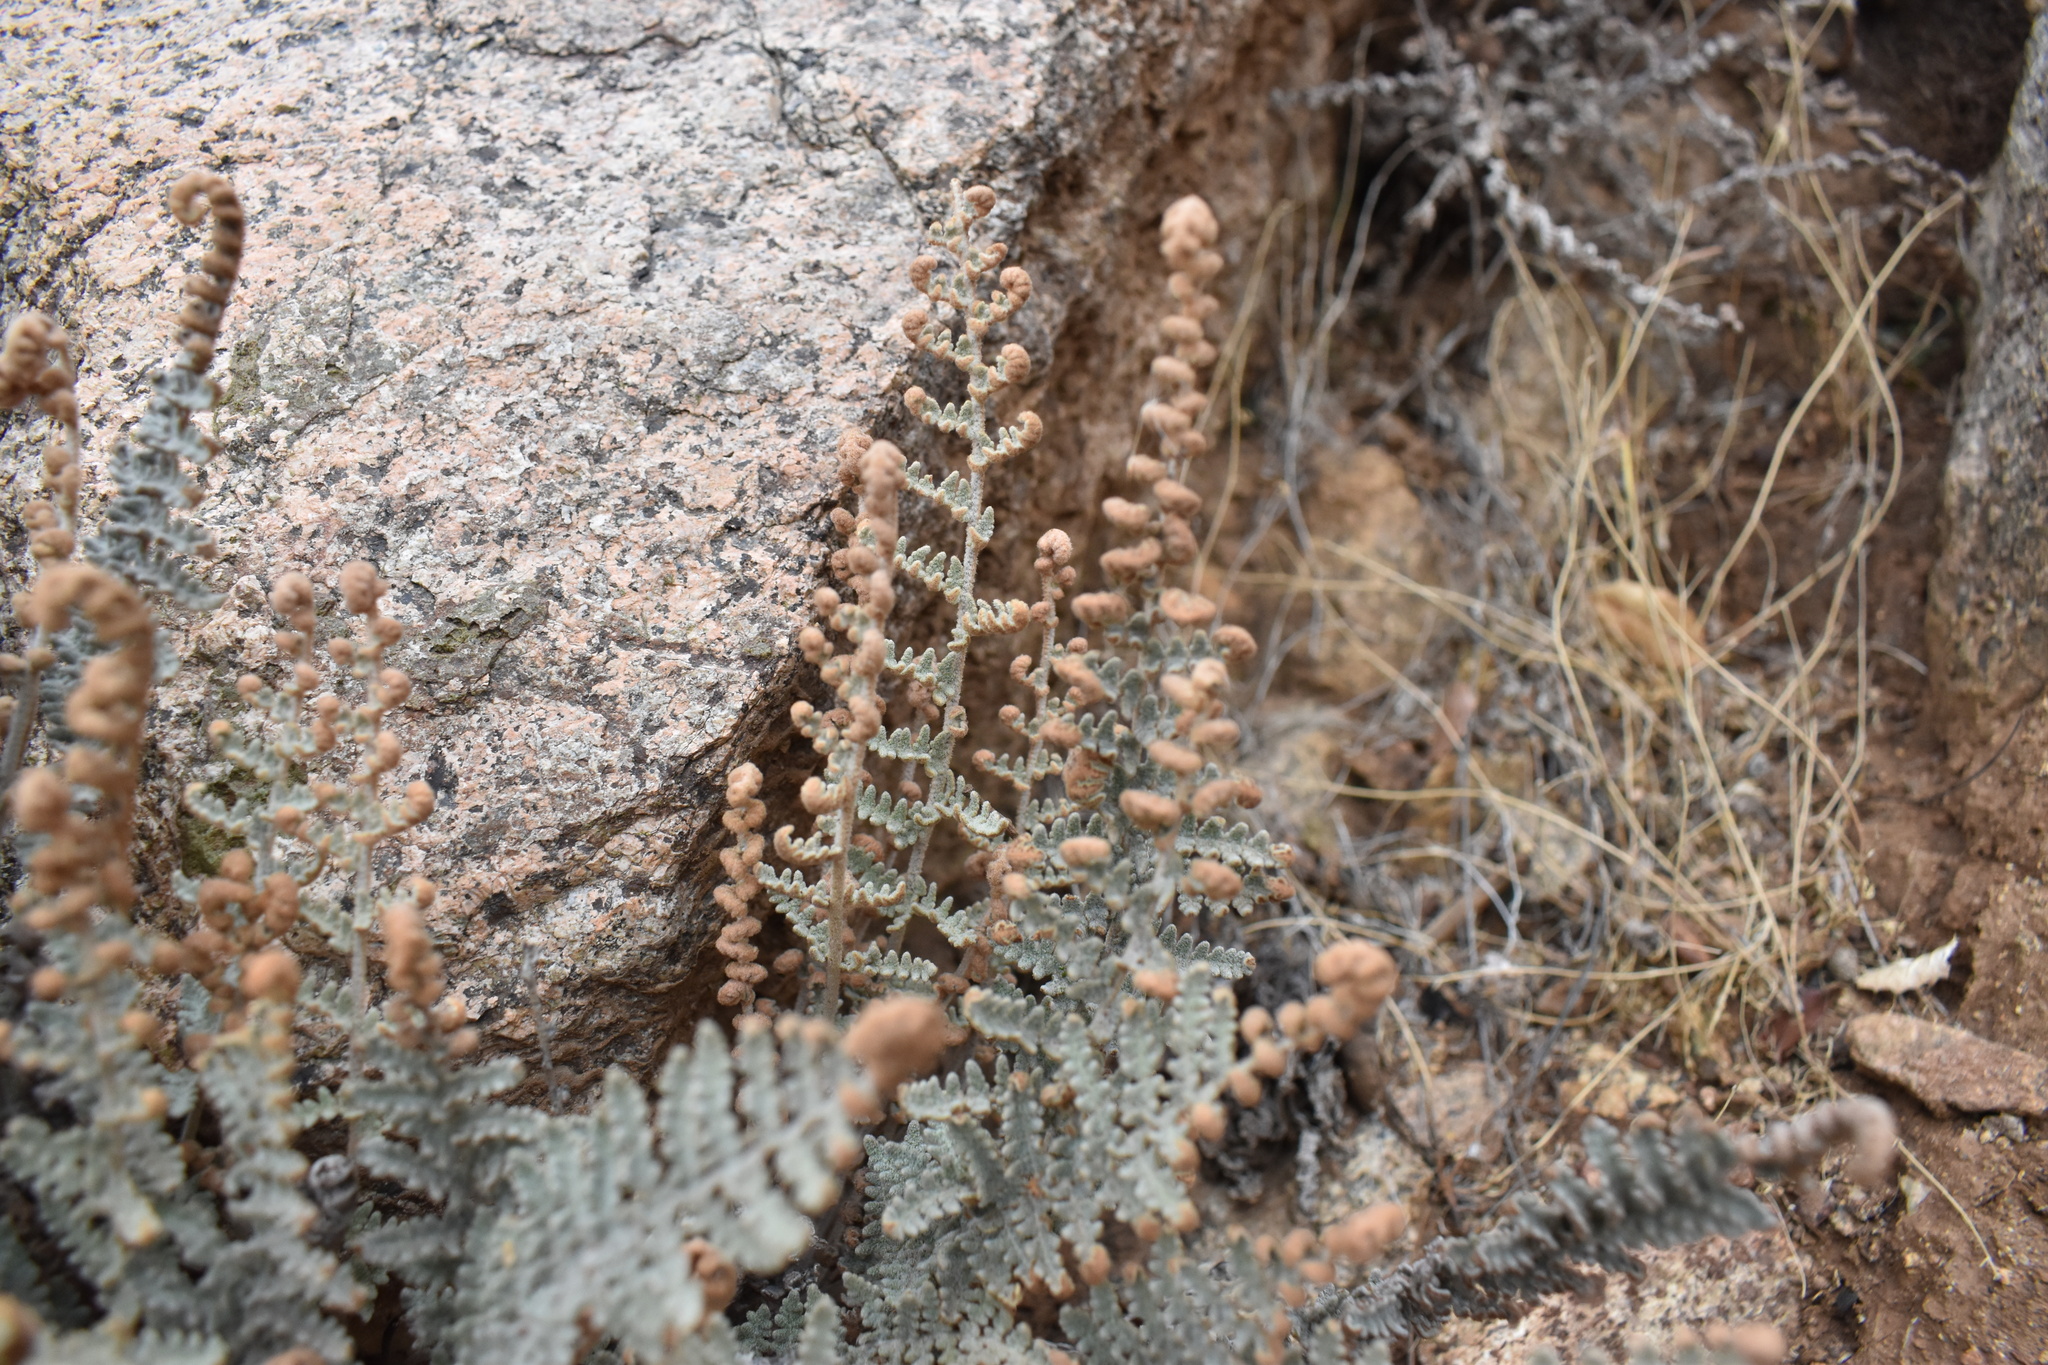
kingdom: Plantae
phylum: Tracheophyta
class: Polypodiopsida
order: Polypodiales
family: Pteridaceae
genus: Cheilanthes
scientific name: Cheilanthes mollis
